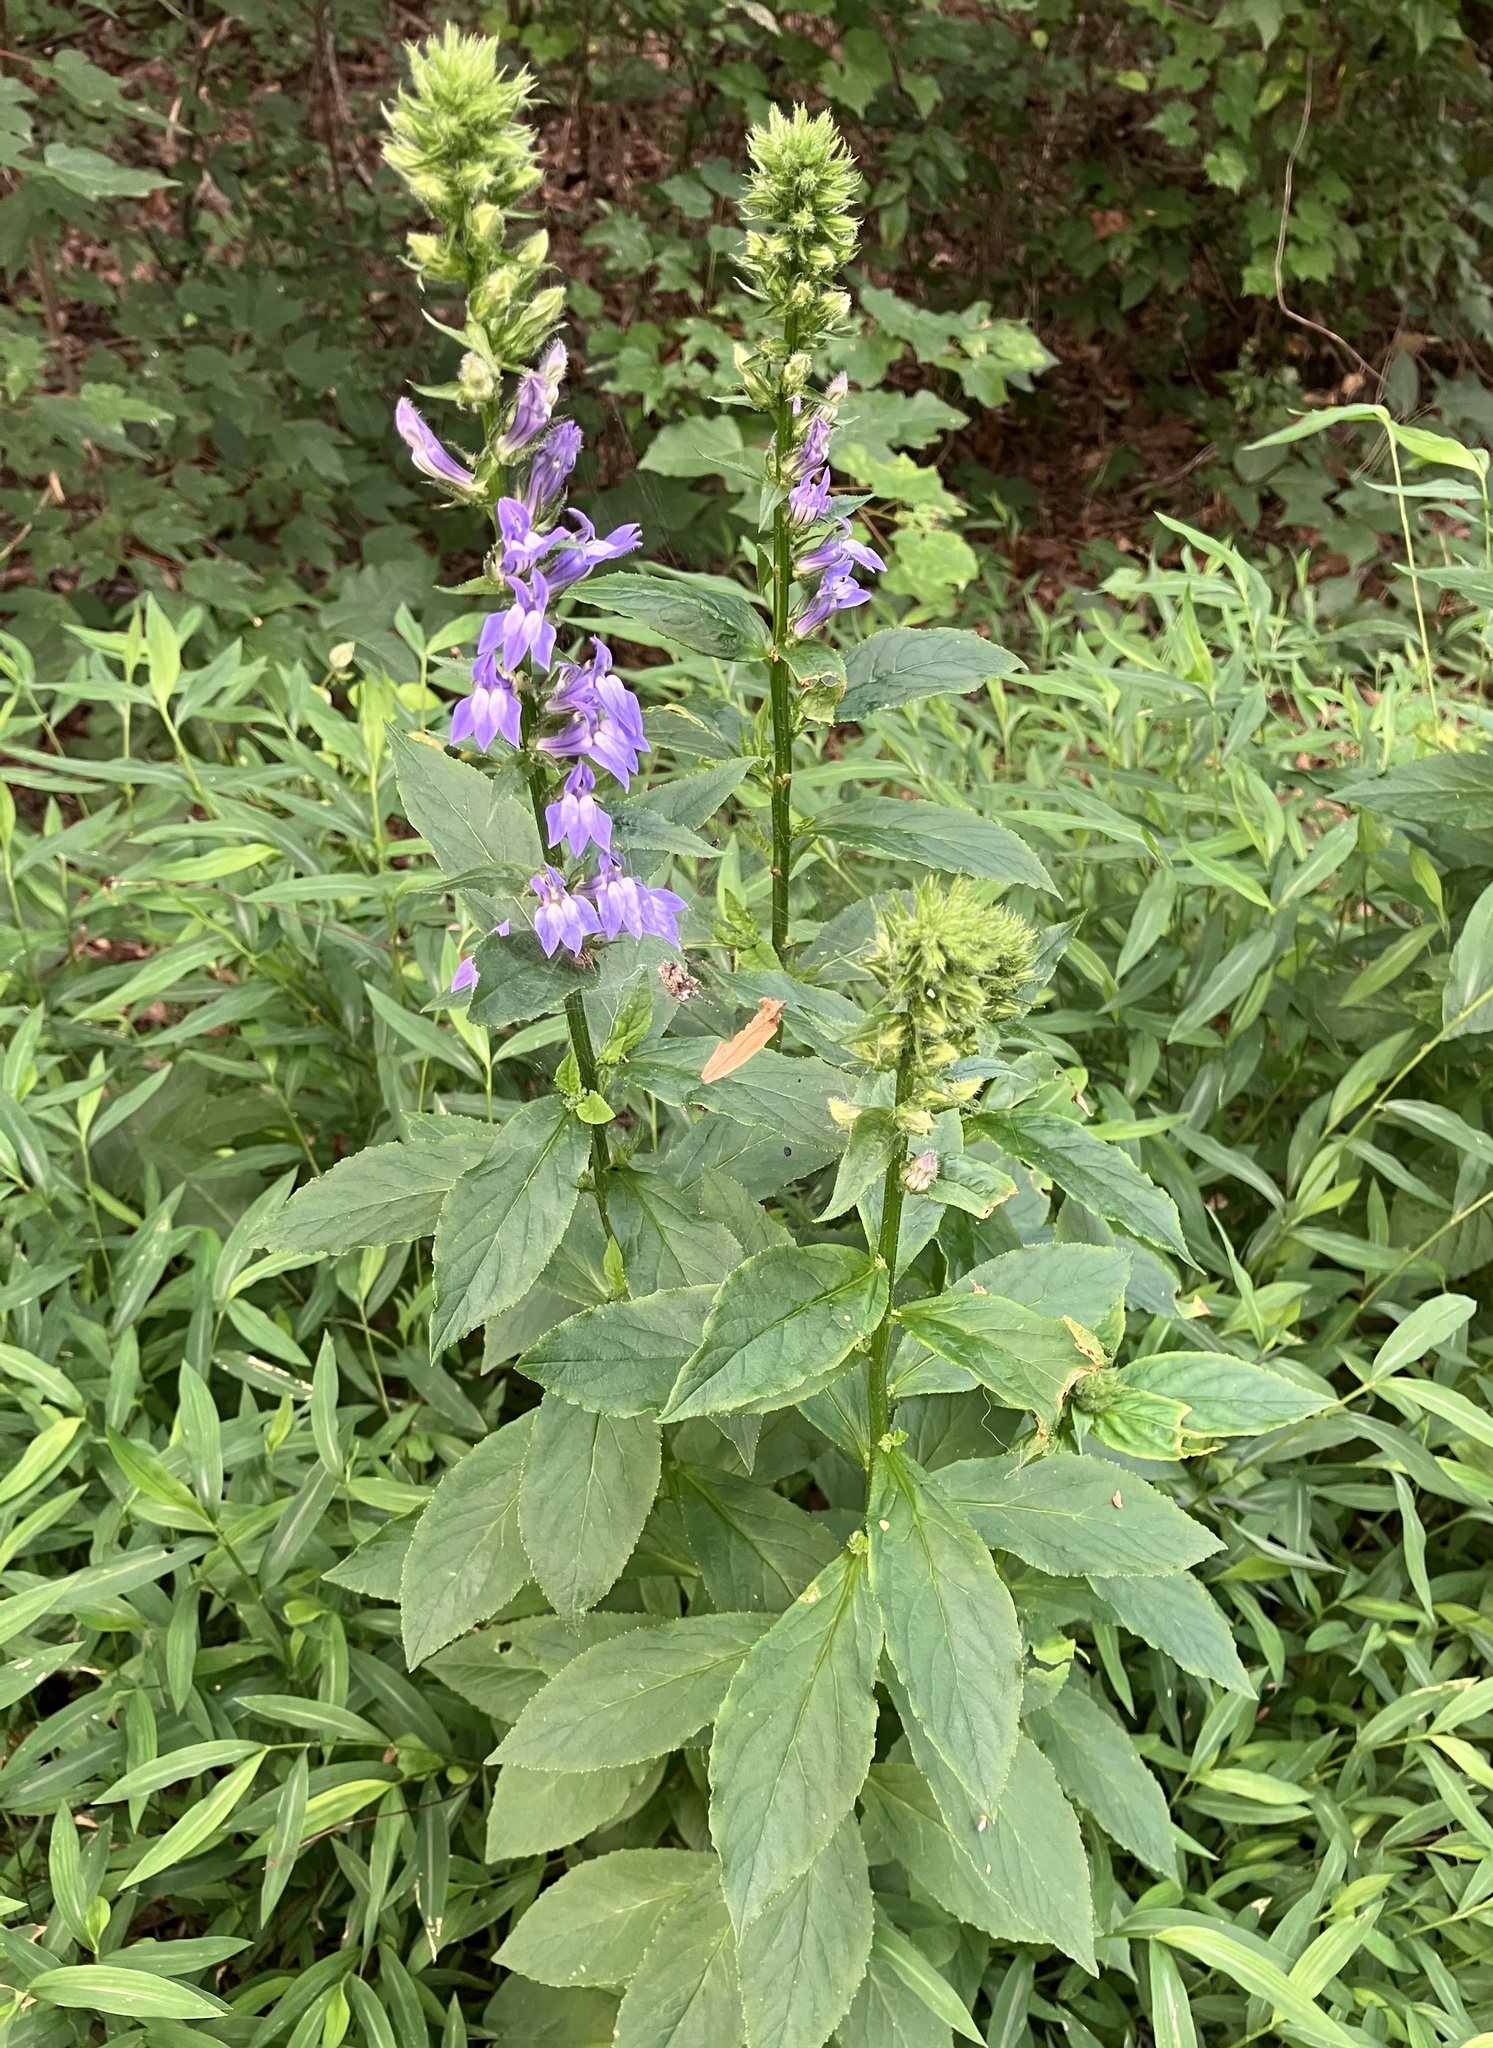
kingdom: Plantae
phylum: Tracheophyta
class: Magnoliopsida
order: Asterales
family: Campanulaceae
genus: Lobelia
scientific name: Lobelia siphilitica
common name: Great lobelia
